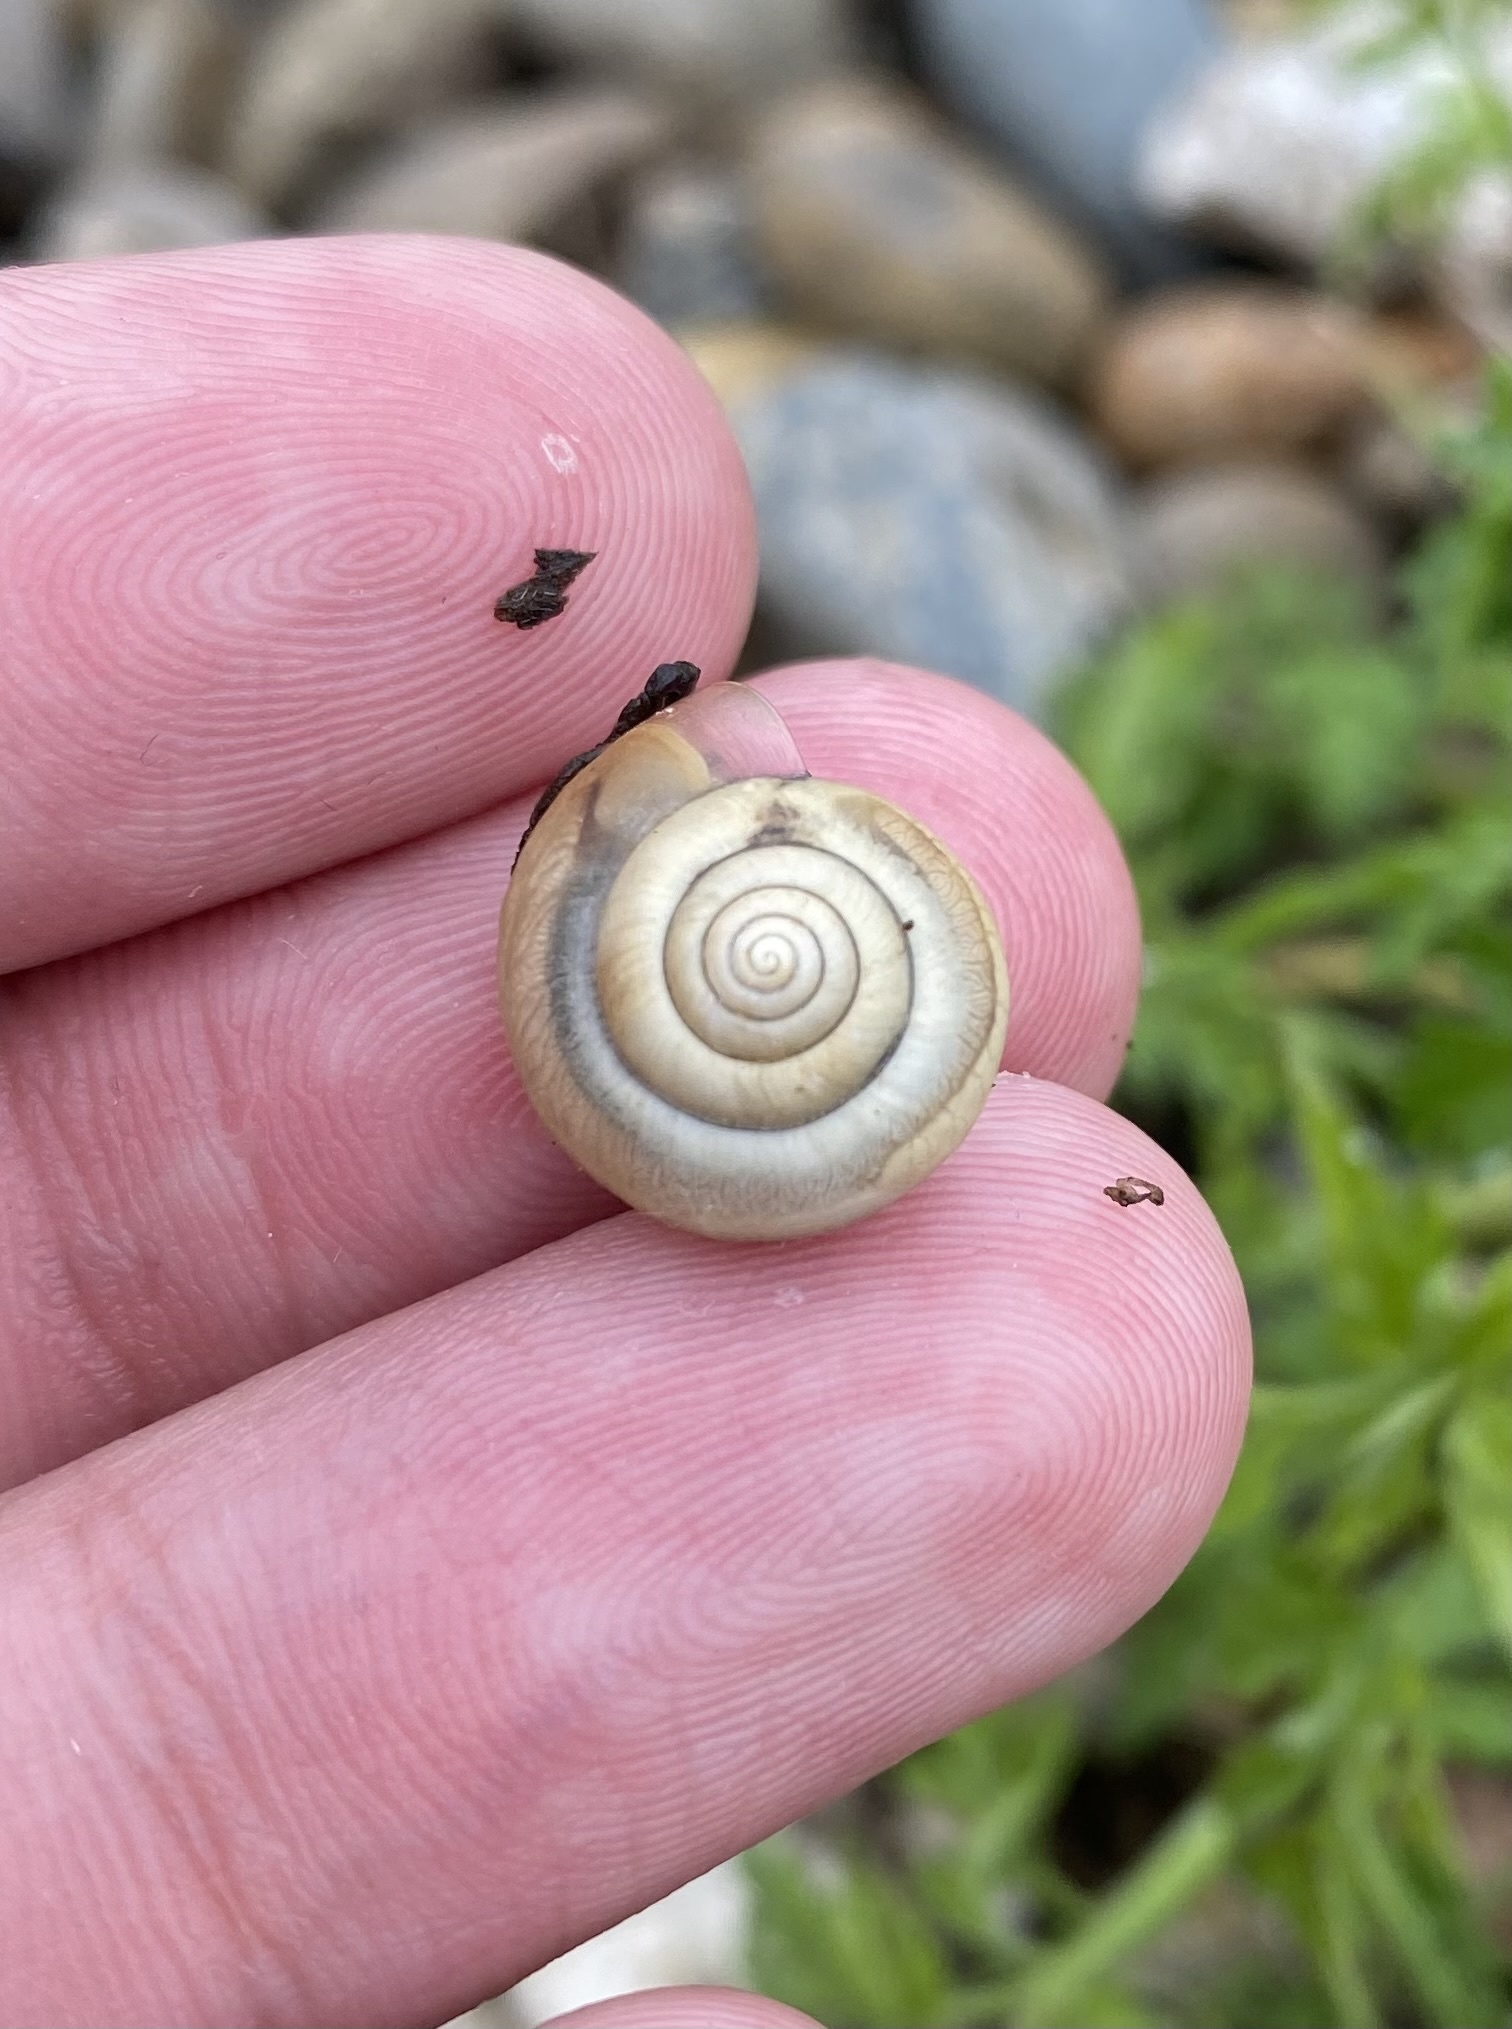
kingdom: Animalia
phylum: Mollusca
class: Gastropoda
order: Stylommatophora
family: Hygromiidae
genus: Monacha
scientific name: Monacha cartusiana
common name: Carthusian snail
